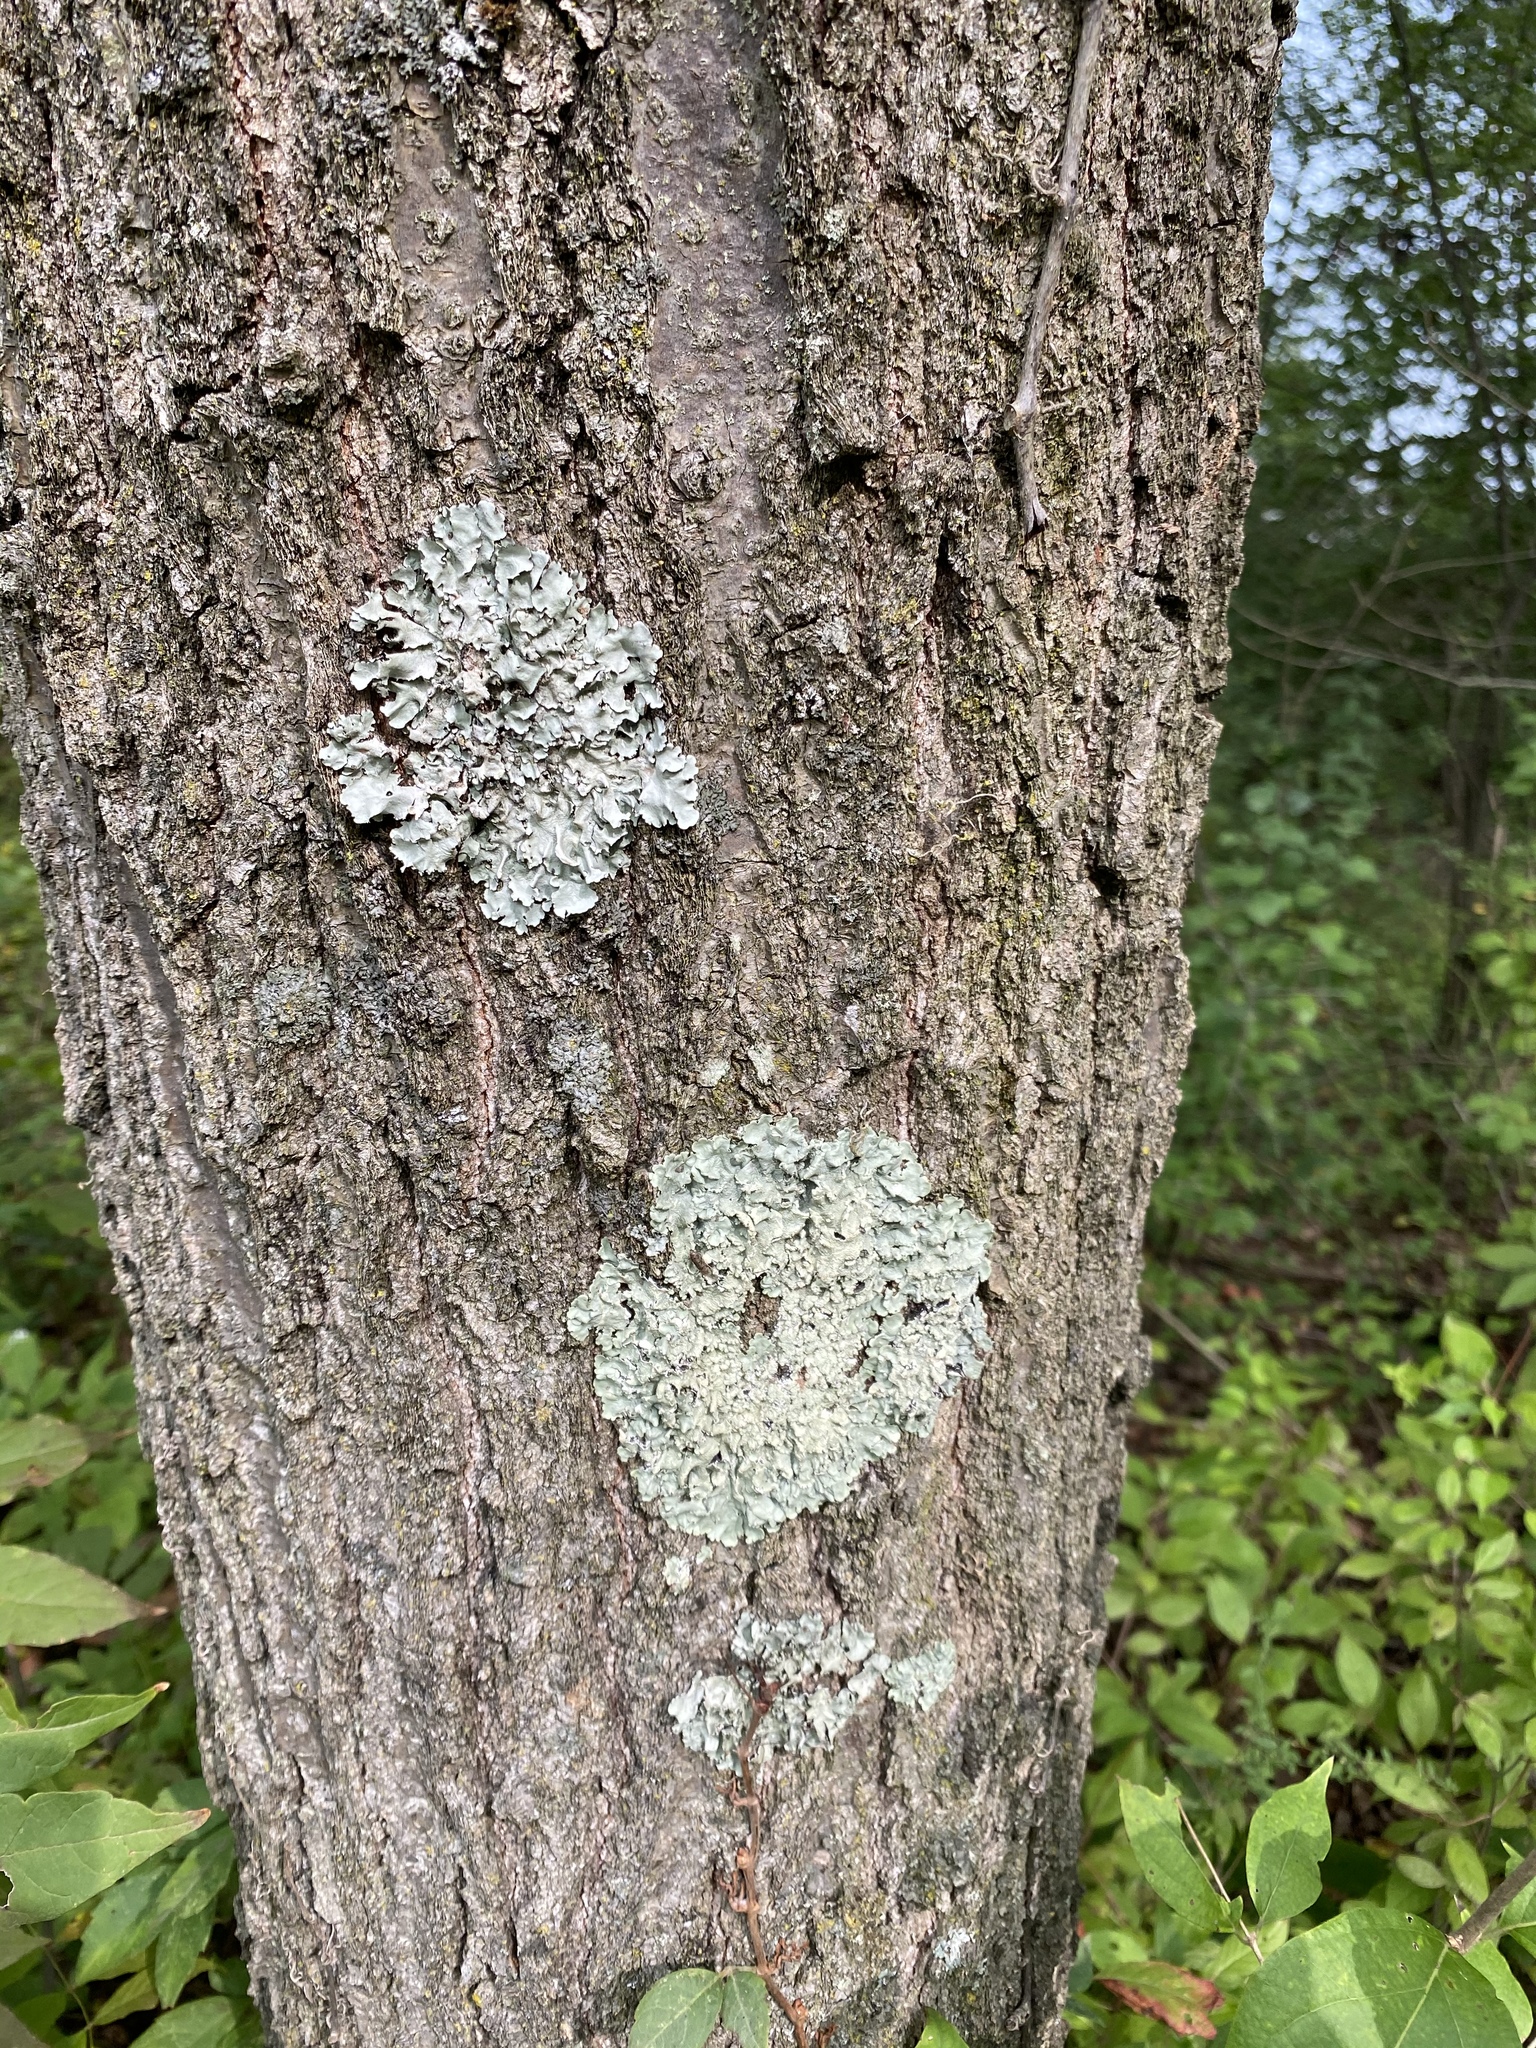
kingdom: Fungi
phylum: Ascomycota
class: Lecanoromycetes
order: Lecanorales
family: Parmeliaceae
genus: Flavoparmelia
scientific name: Flavoparmelia caperata
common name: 40-mile per hour lichen
